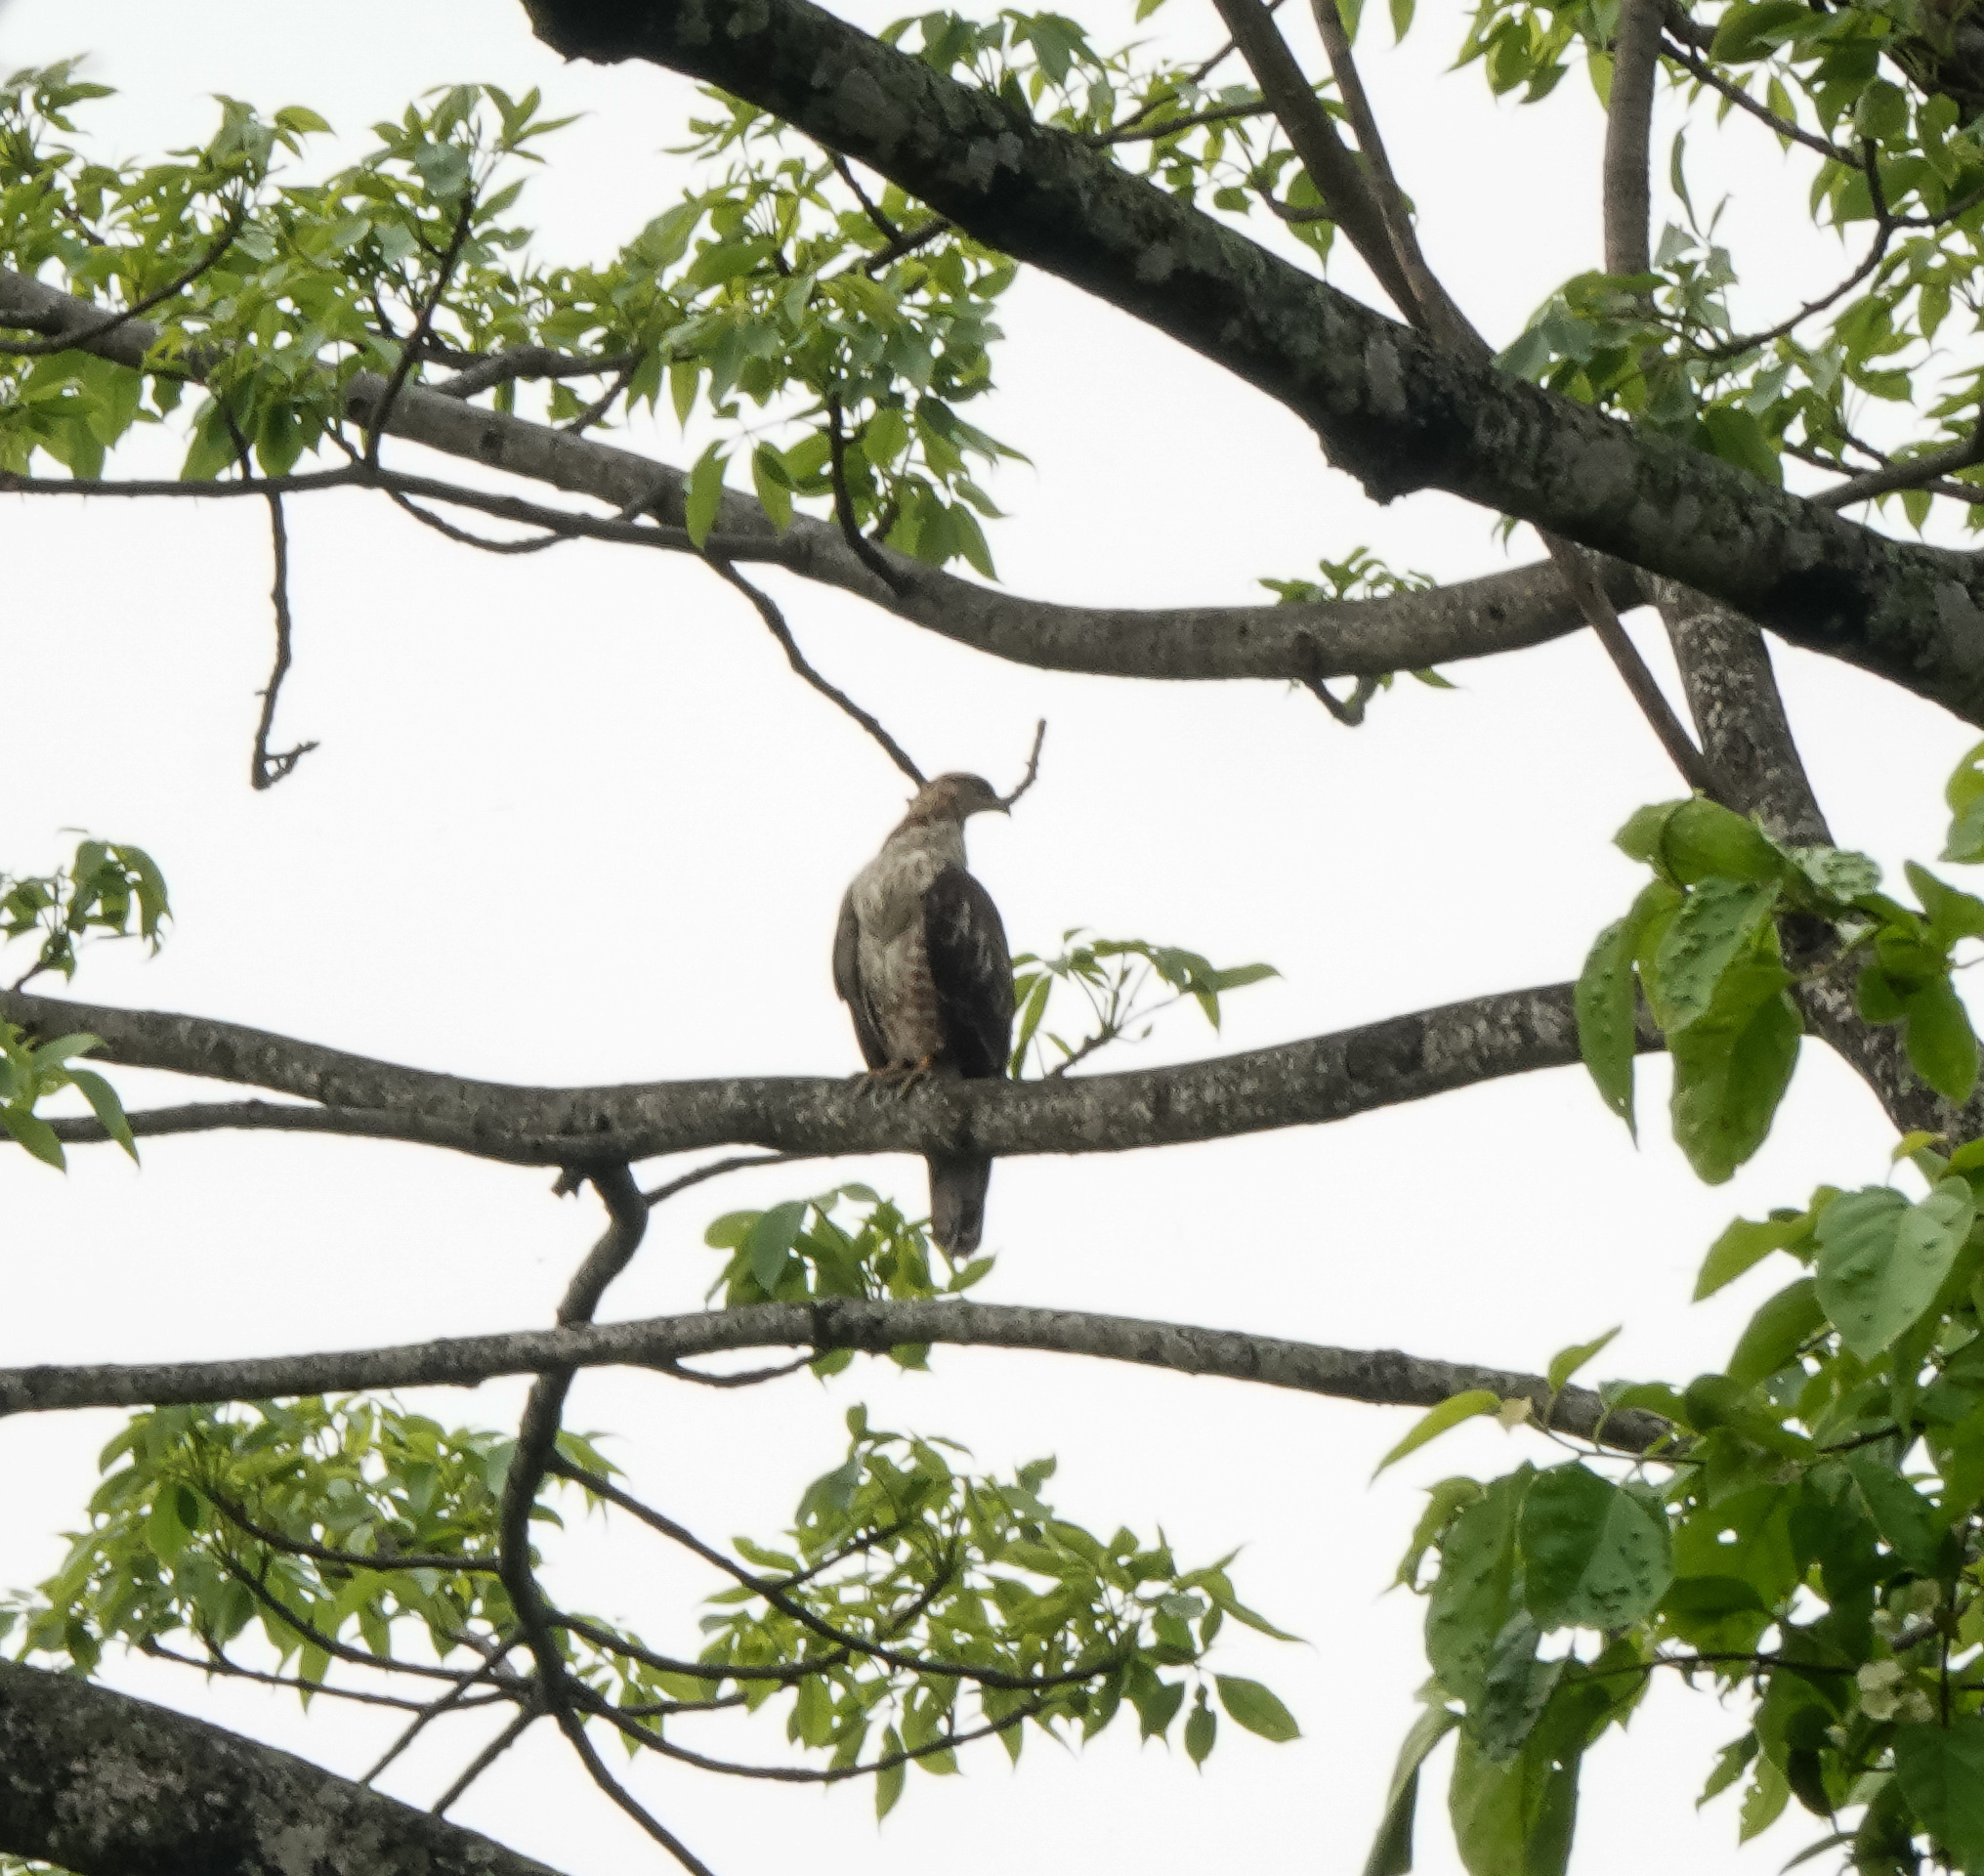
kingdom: Animalia
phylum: Chordata
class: Aves
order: Accipitriformes
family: Accipitridae
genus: Accipiter
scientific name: Accipiter trivirgatus
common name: Crested goshawk
